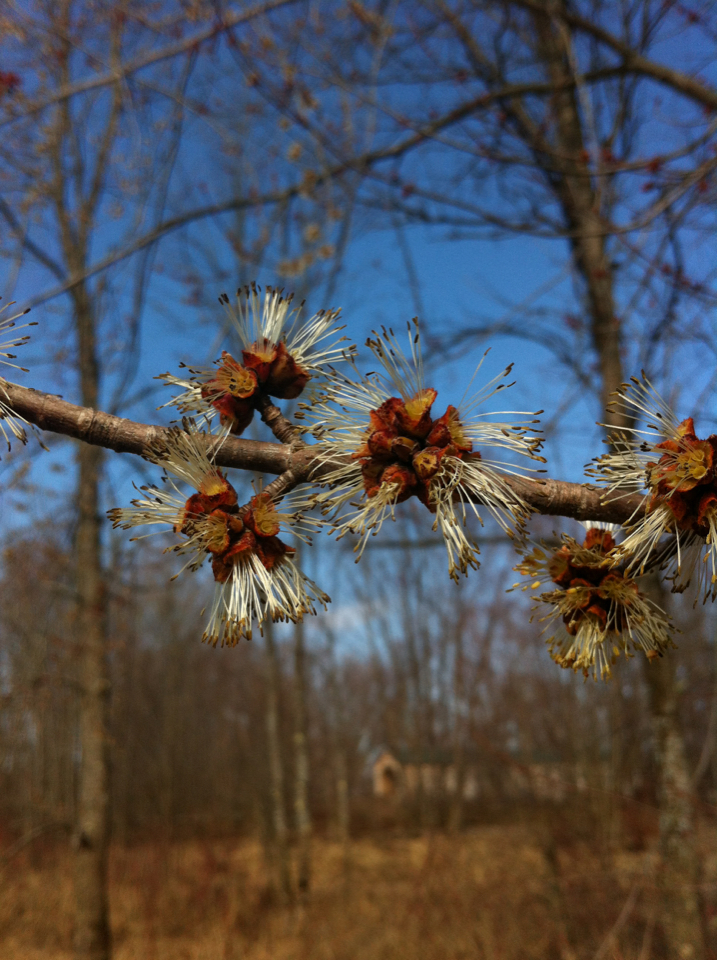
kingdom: Plantae
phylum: Tracheophyta
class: Magnoliopsida
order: Sapindales
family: Sapindaceae
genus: Acer
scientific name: Acer saccharinum
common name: Silver maple
